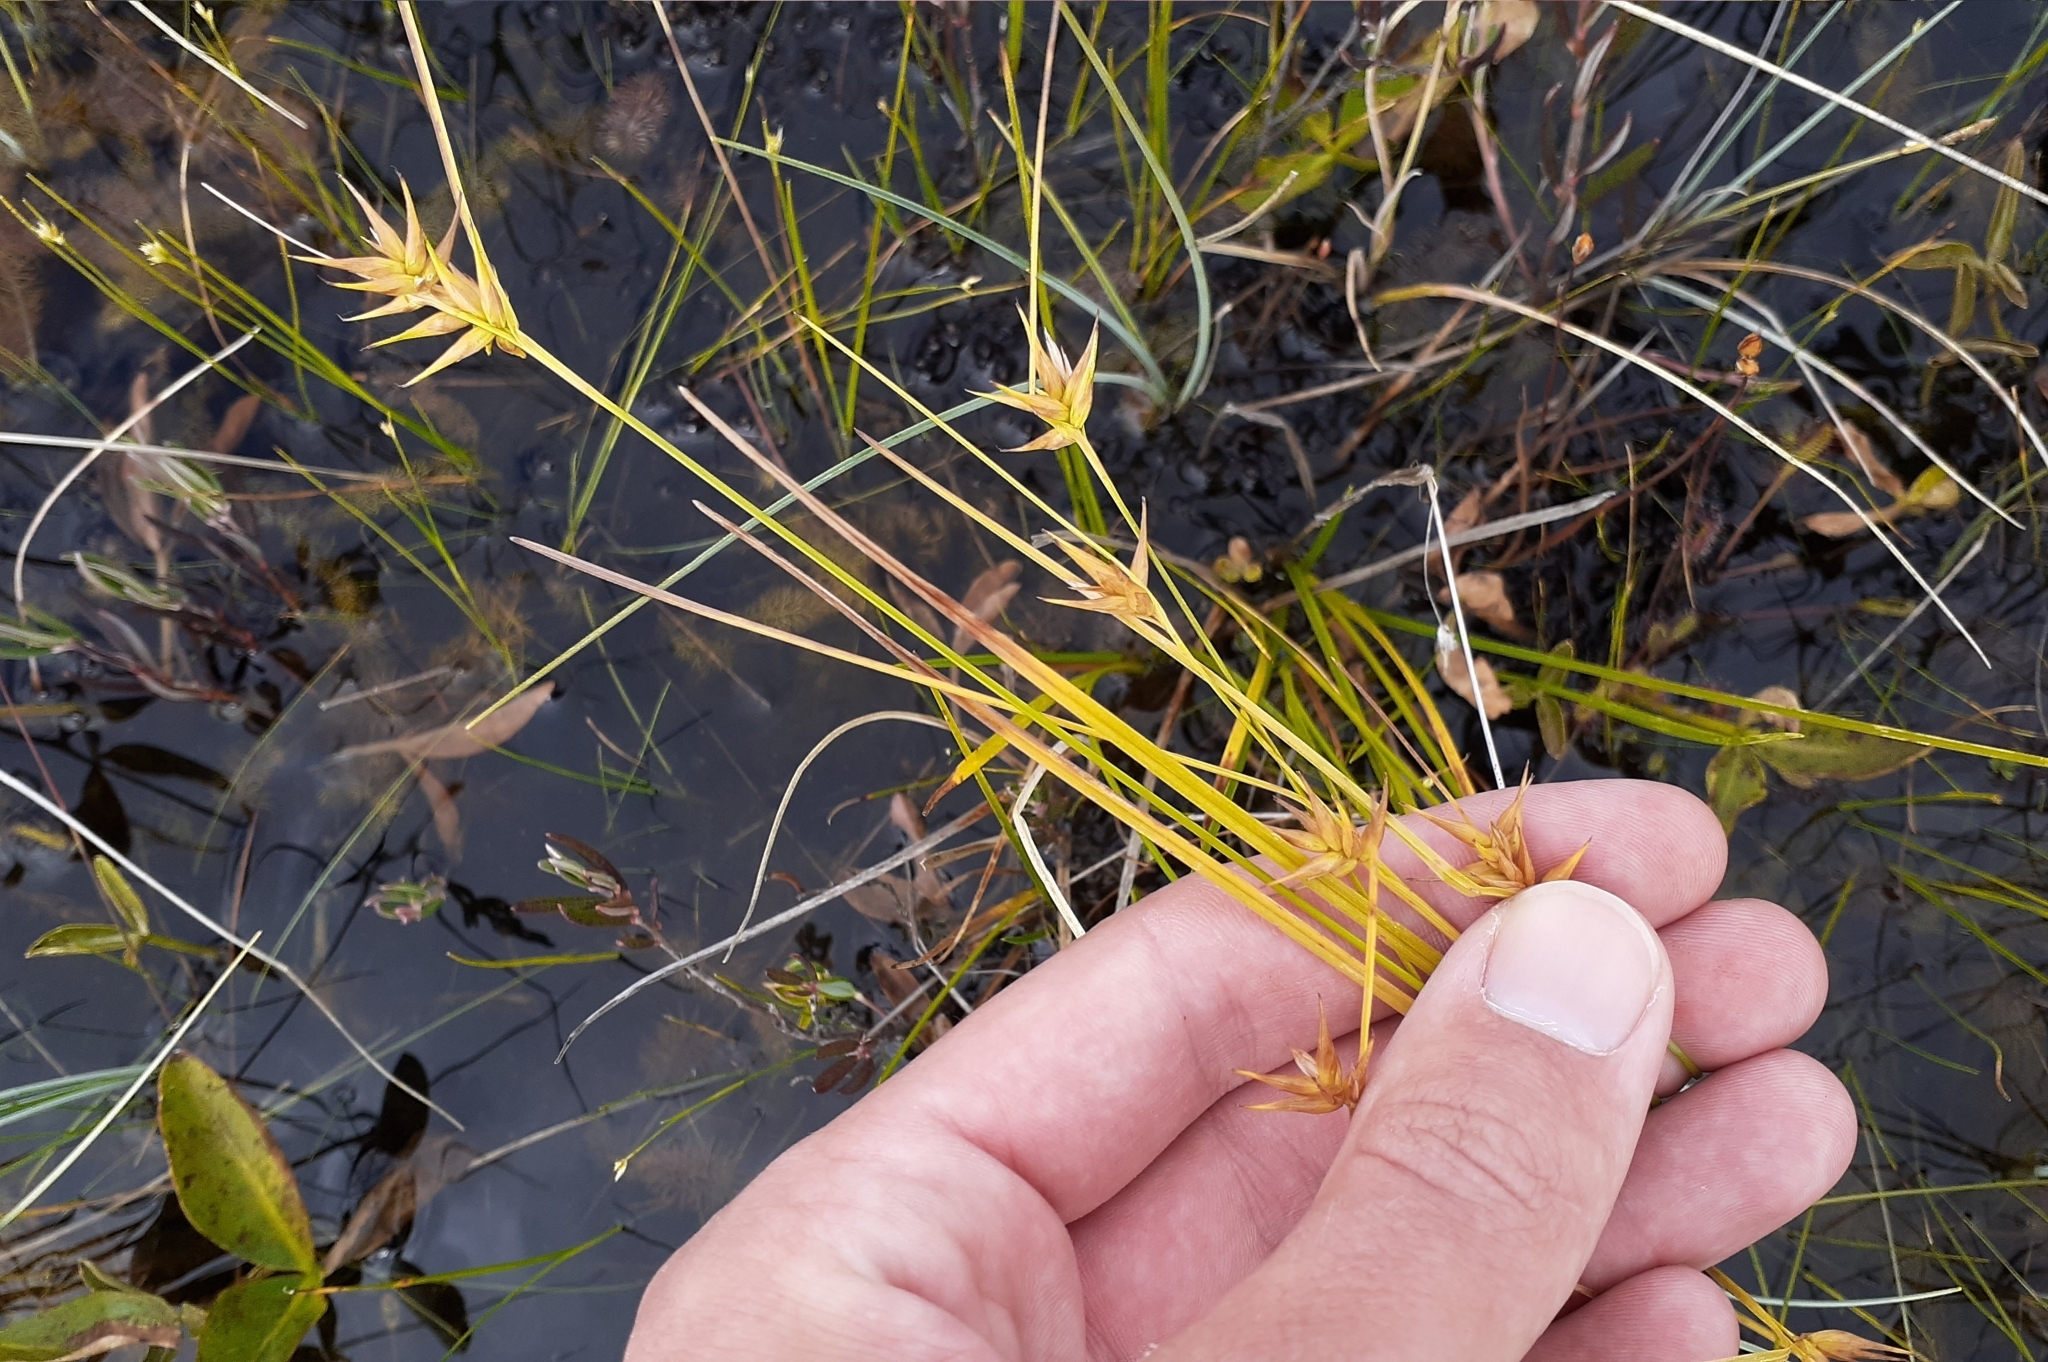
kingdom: Plantae
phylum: Tracheophyta
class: Liliopsida
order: Poales
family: Cyperaceae
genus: Carex
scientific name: Carex michauxiana
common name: Michaux's sedge
